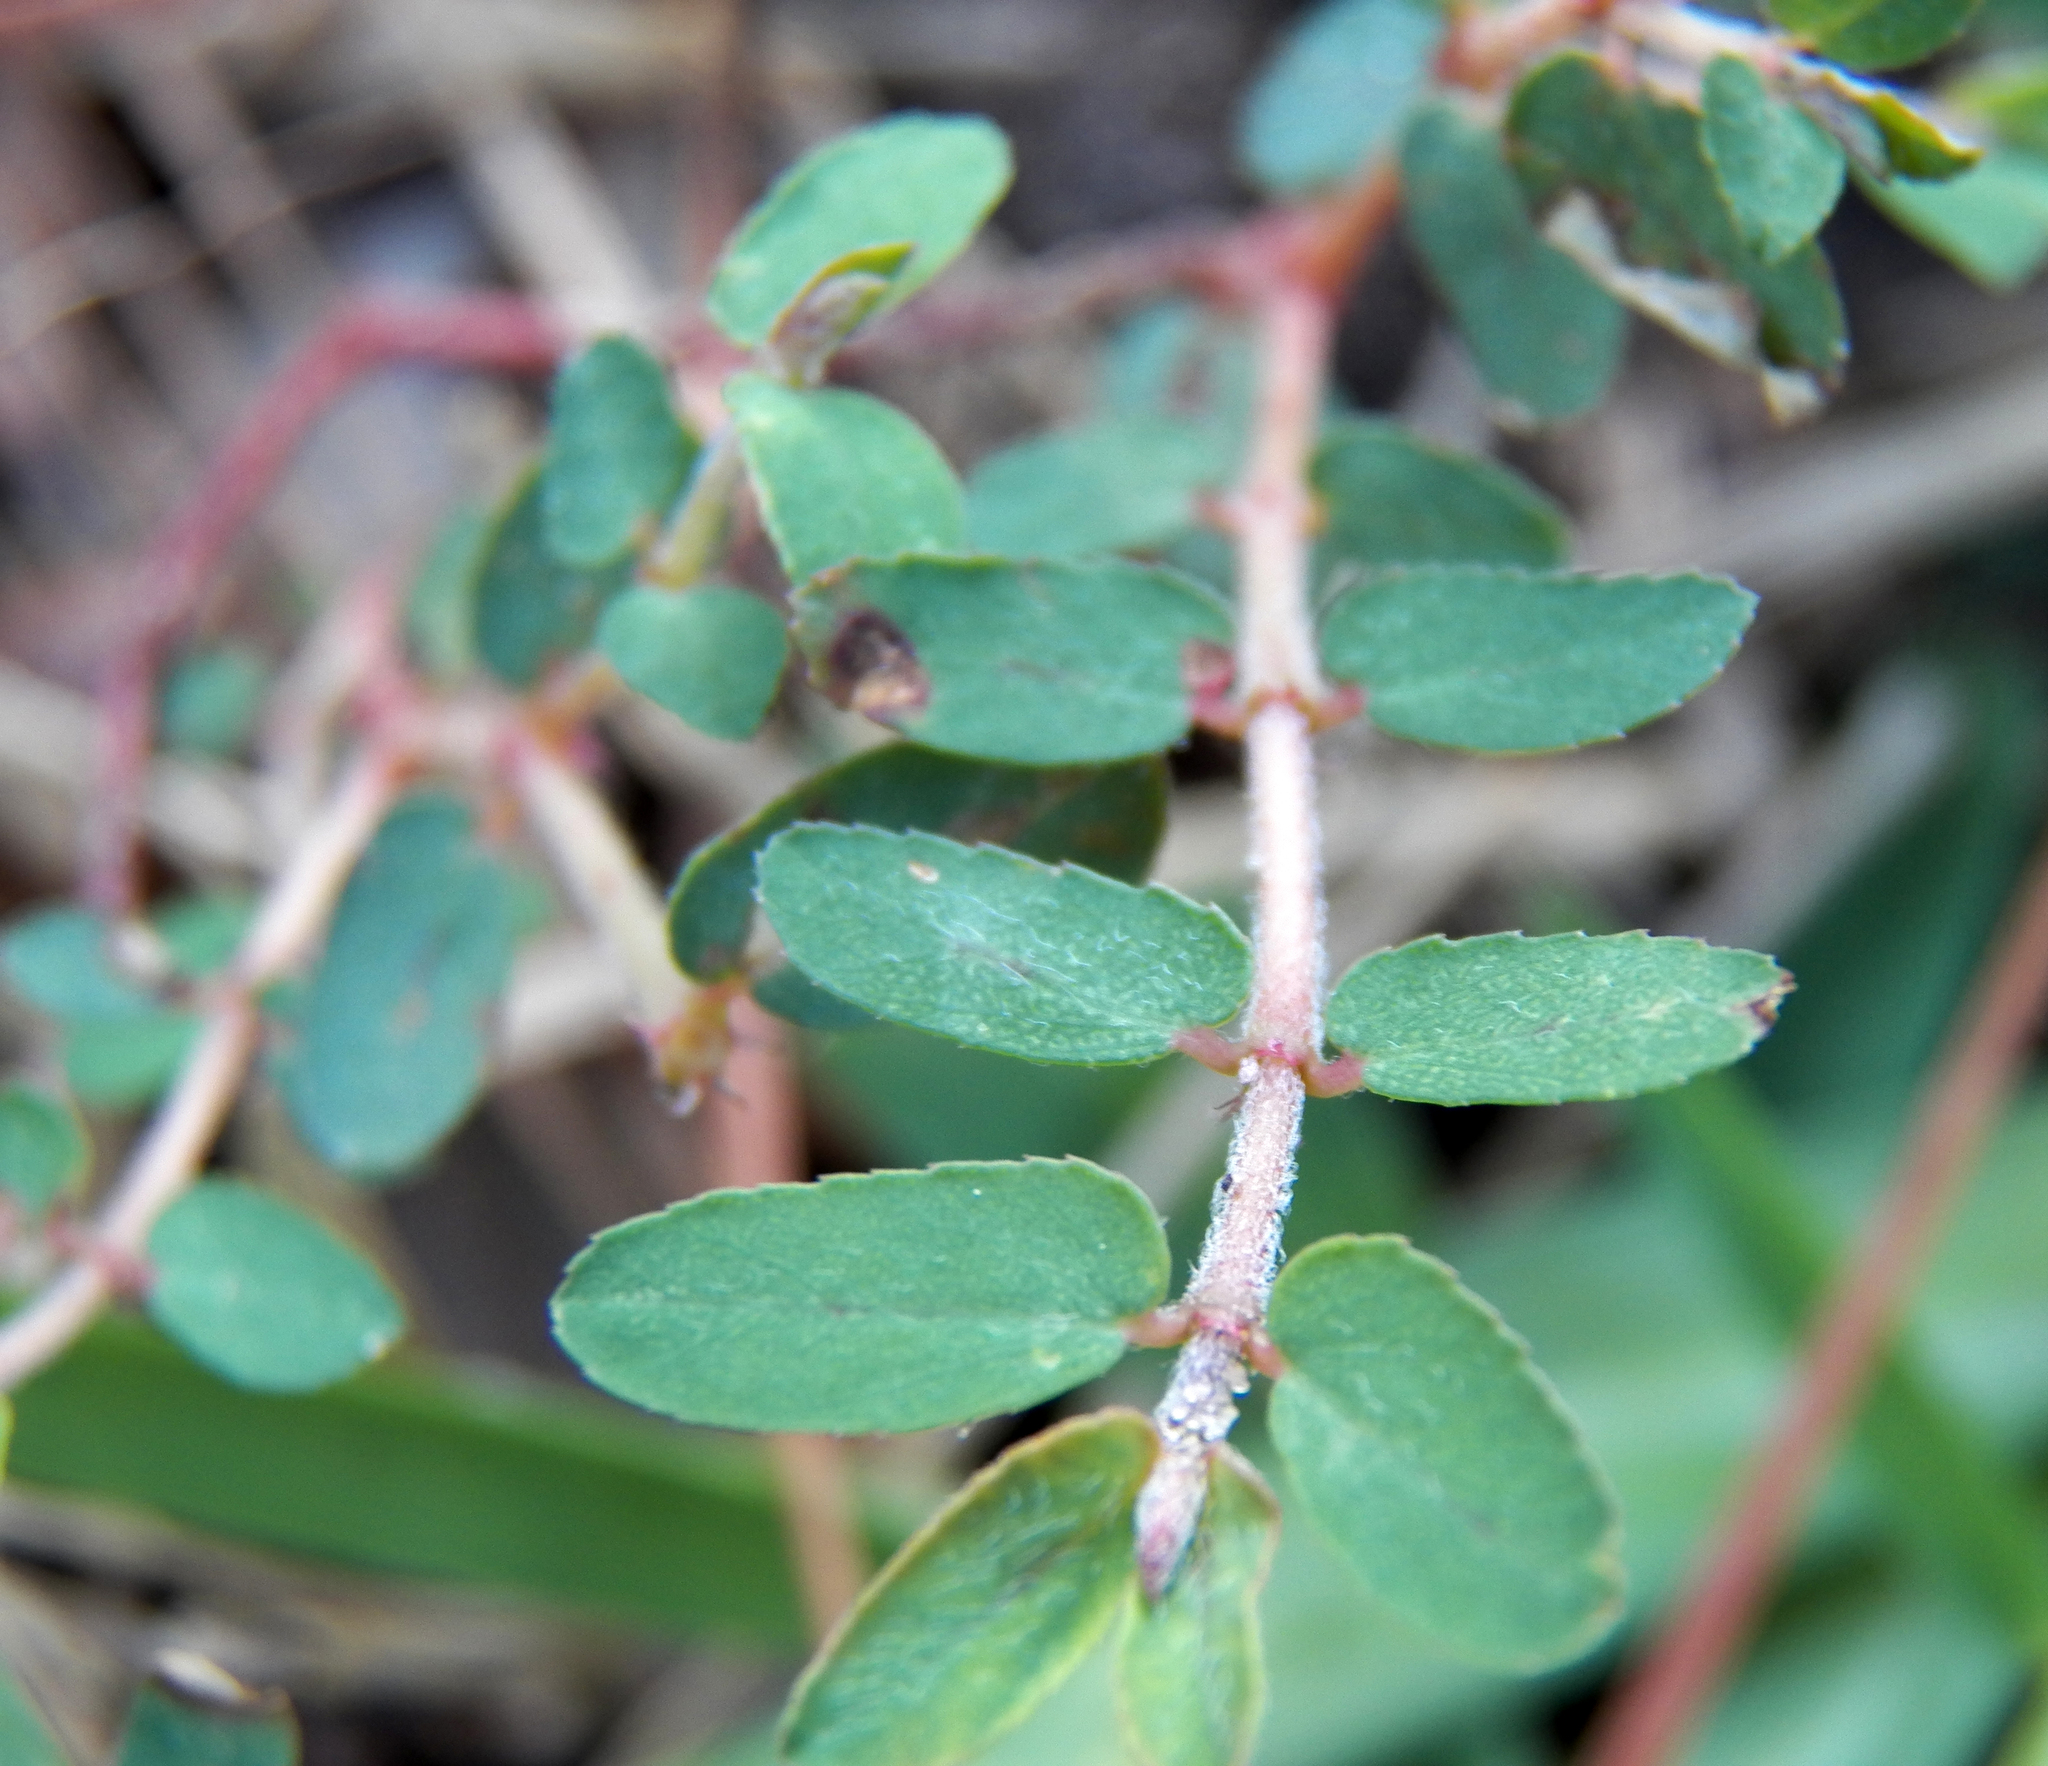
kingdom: Plantae
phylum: Tracheophyta
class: Magnoliopsida
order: Malpighiales
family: Euphorbiaceae
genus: Euphorbia
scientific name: Euphorbia maculata
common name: Spotted spurge
